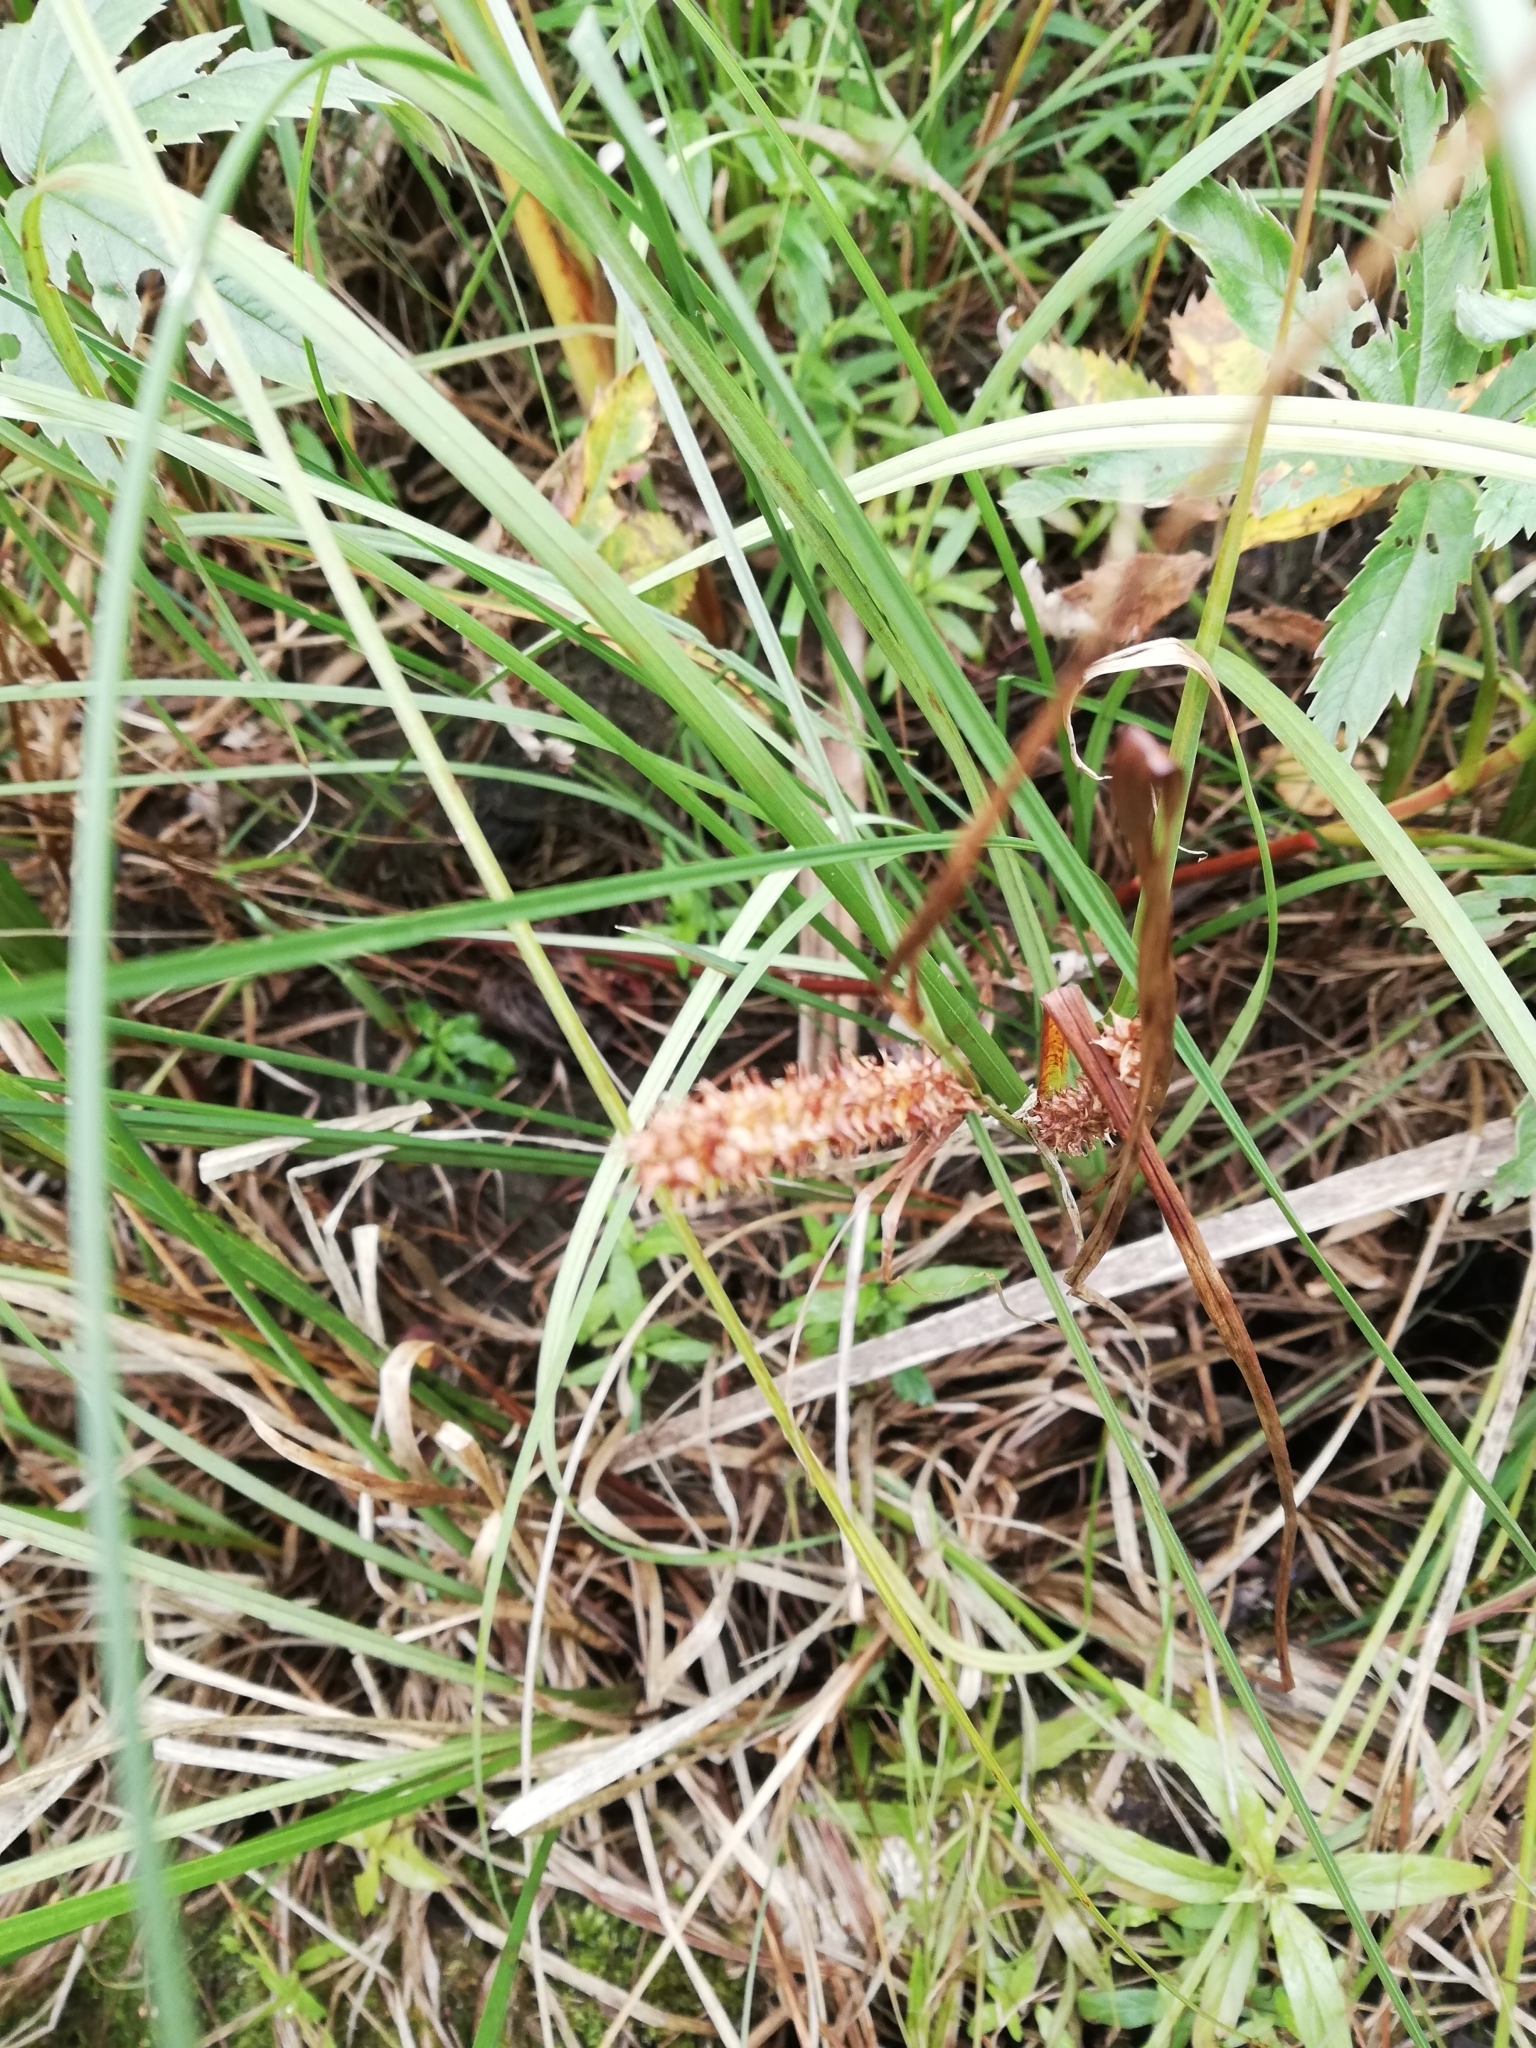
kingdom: Plantae
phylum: Tracheophyta
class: Liliopsida
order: Poales
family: Cyperaceae
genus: Carex
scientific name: Carex rostrata
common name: Bottle sedge
